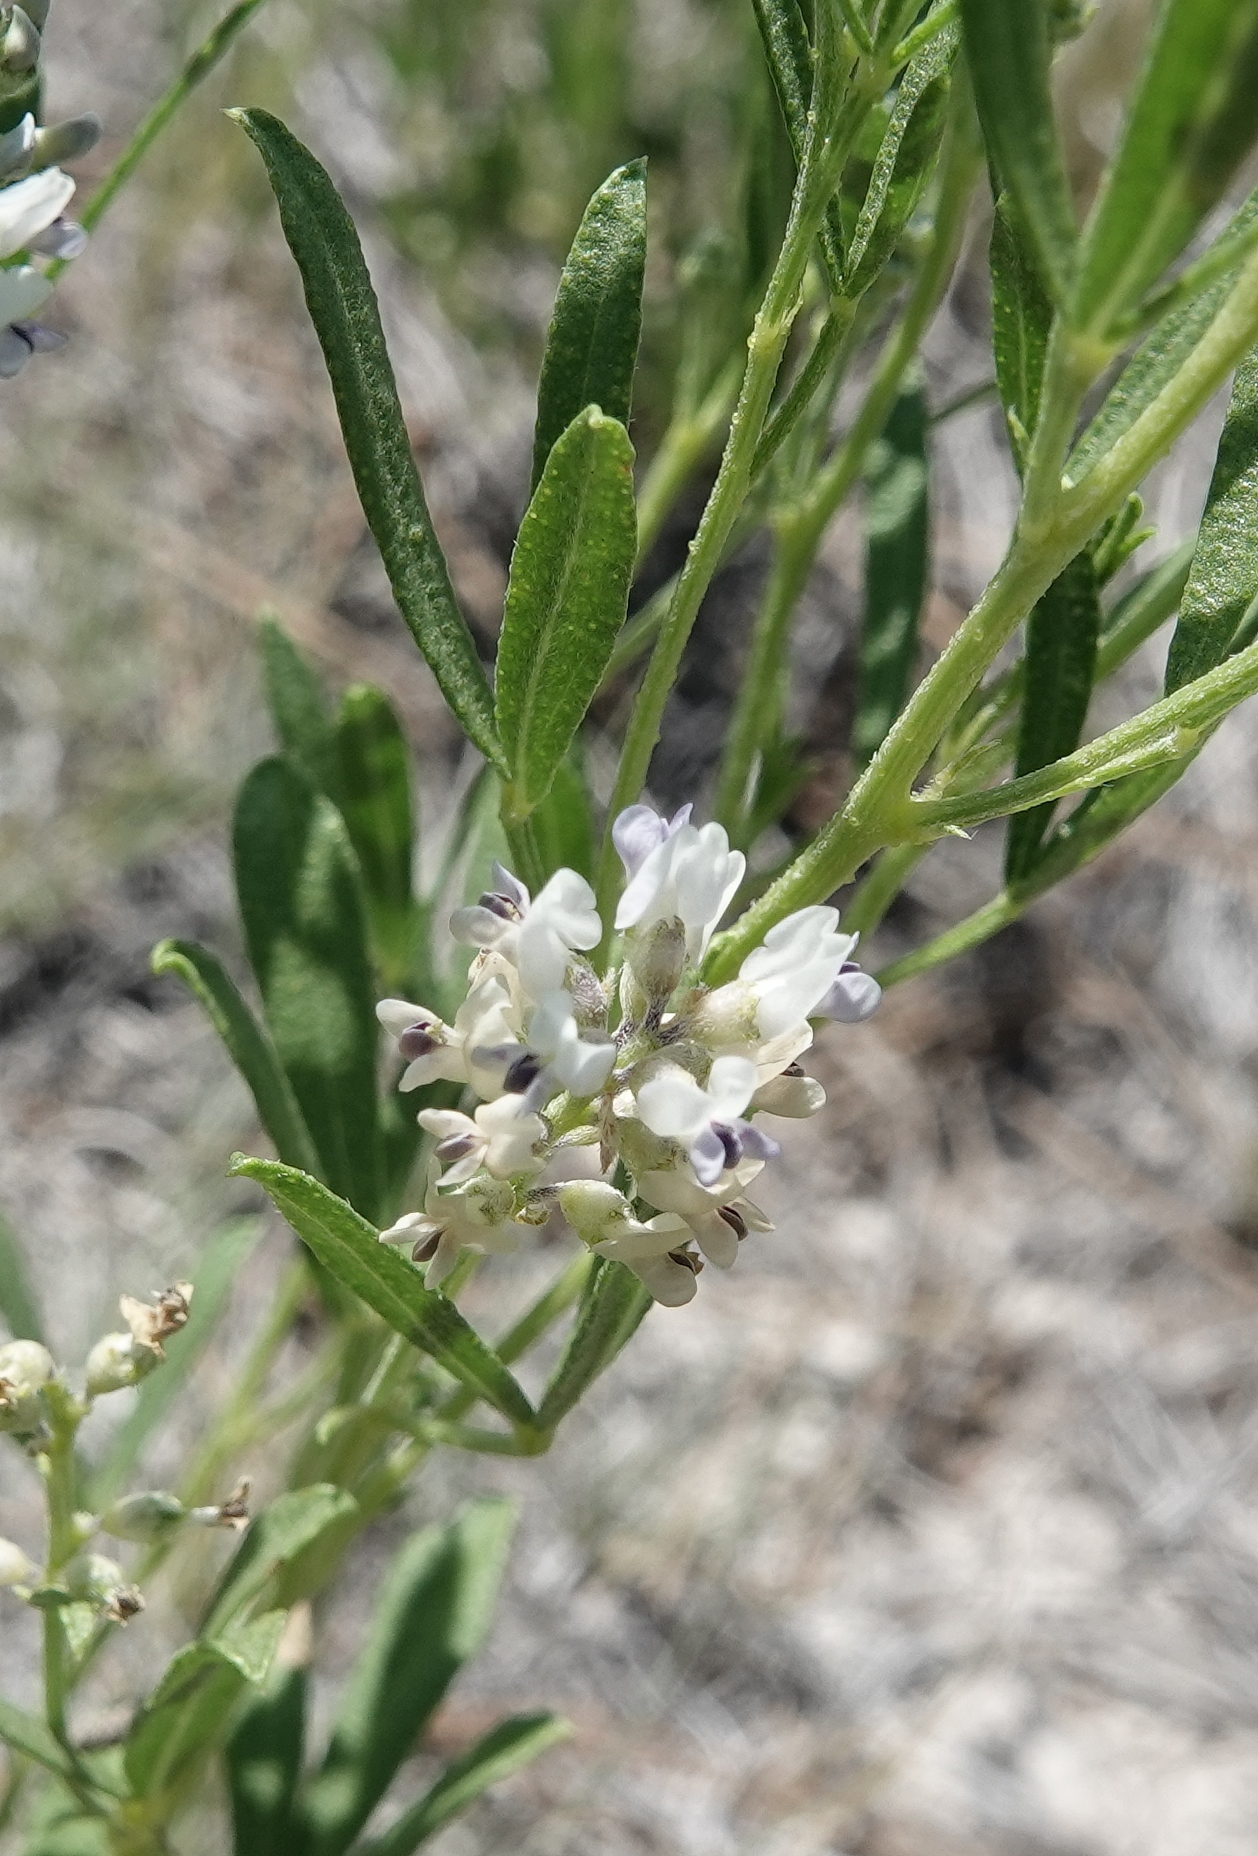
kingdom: Plantae
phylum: Tracheophyta
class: Magnoliopsida
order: Fabales
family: Fabaceae
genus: Ladeania
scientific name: Ladeania lanceolata
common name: Dune scurf-pea
